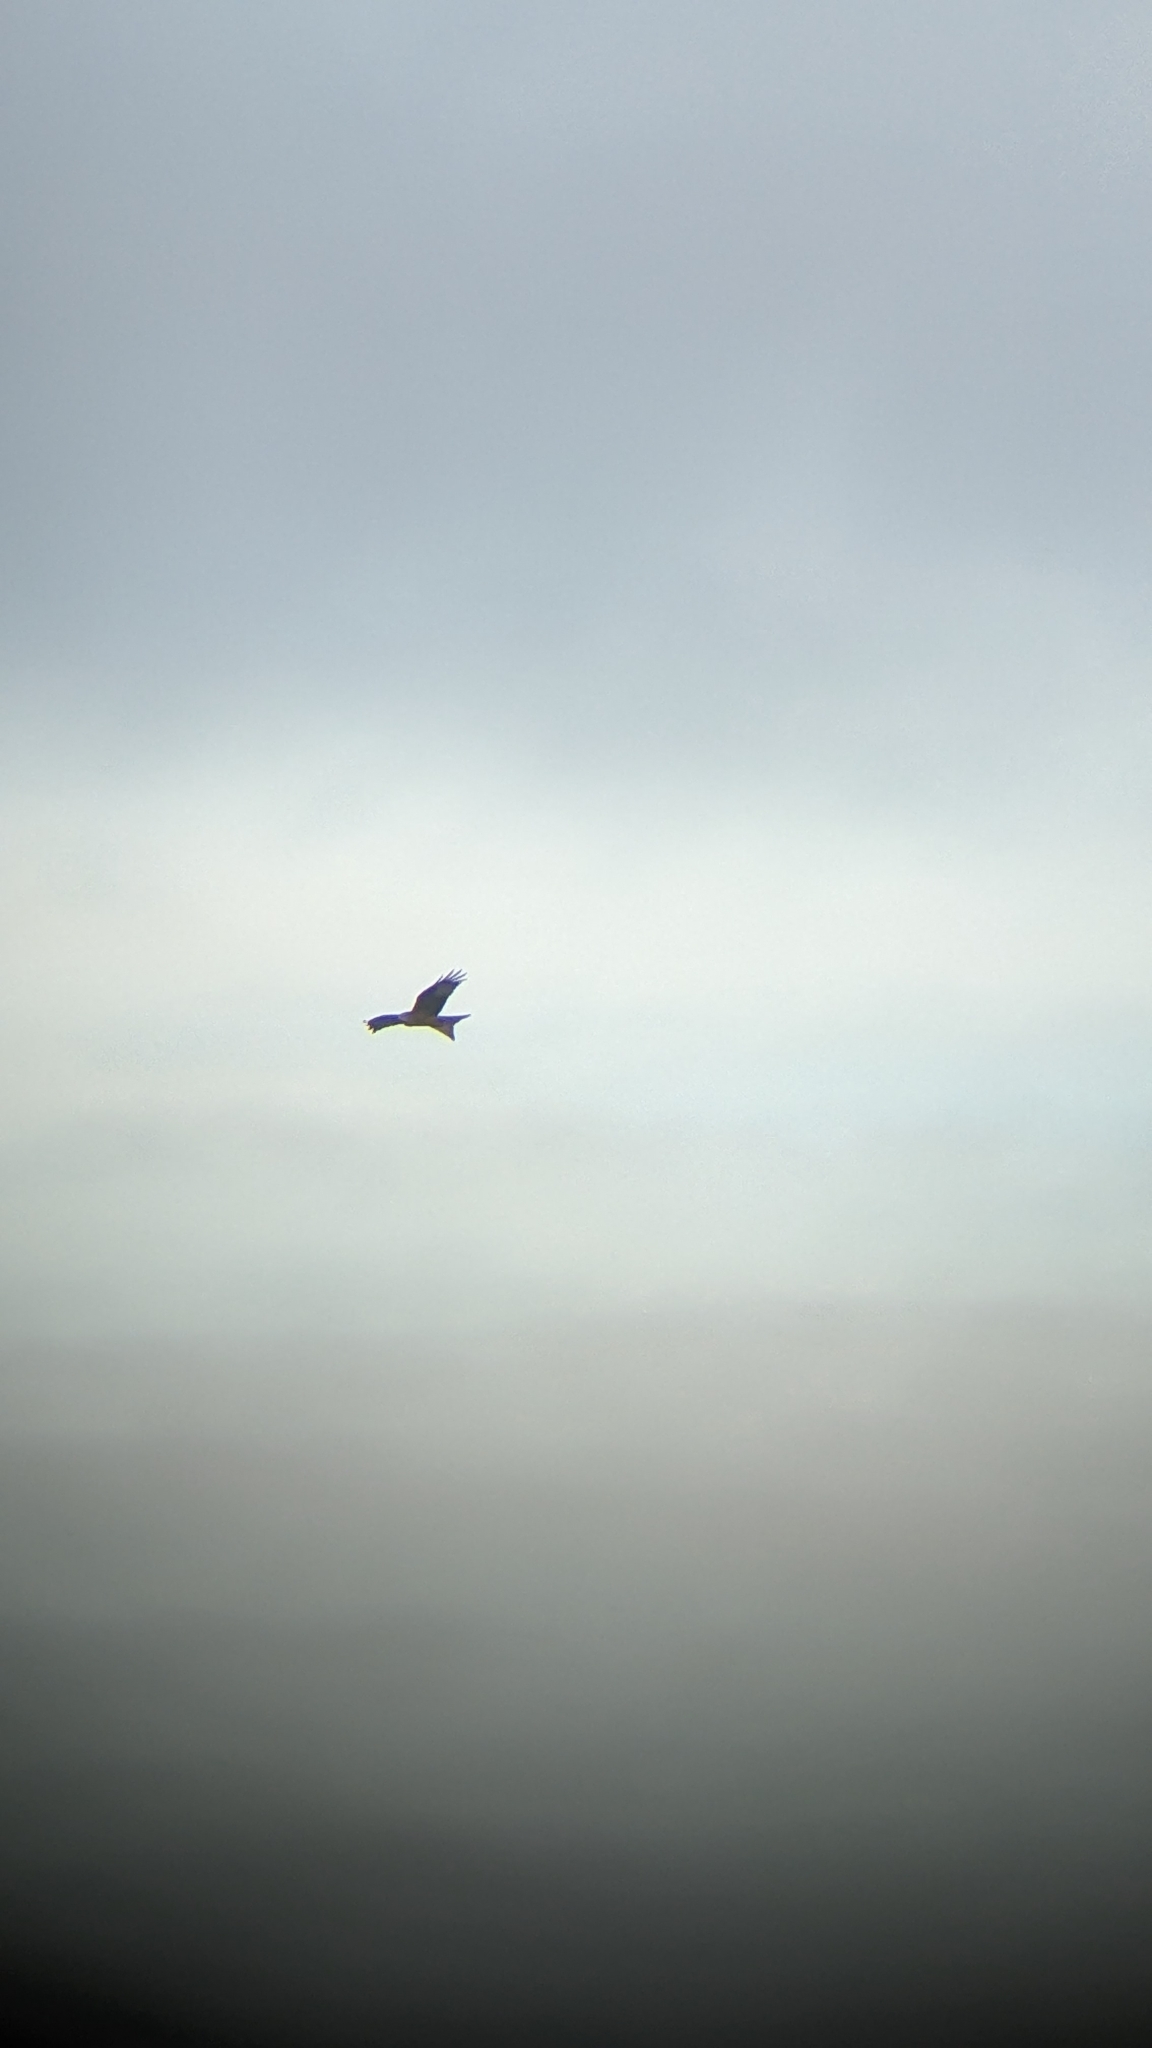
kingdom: Animalia
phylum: Chordata
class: Aves
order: Accipitriformes
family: Accipitridae
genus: Milvus
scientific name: Milvus milvus
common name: Red kite
